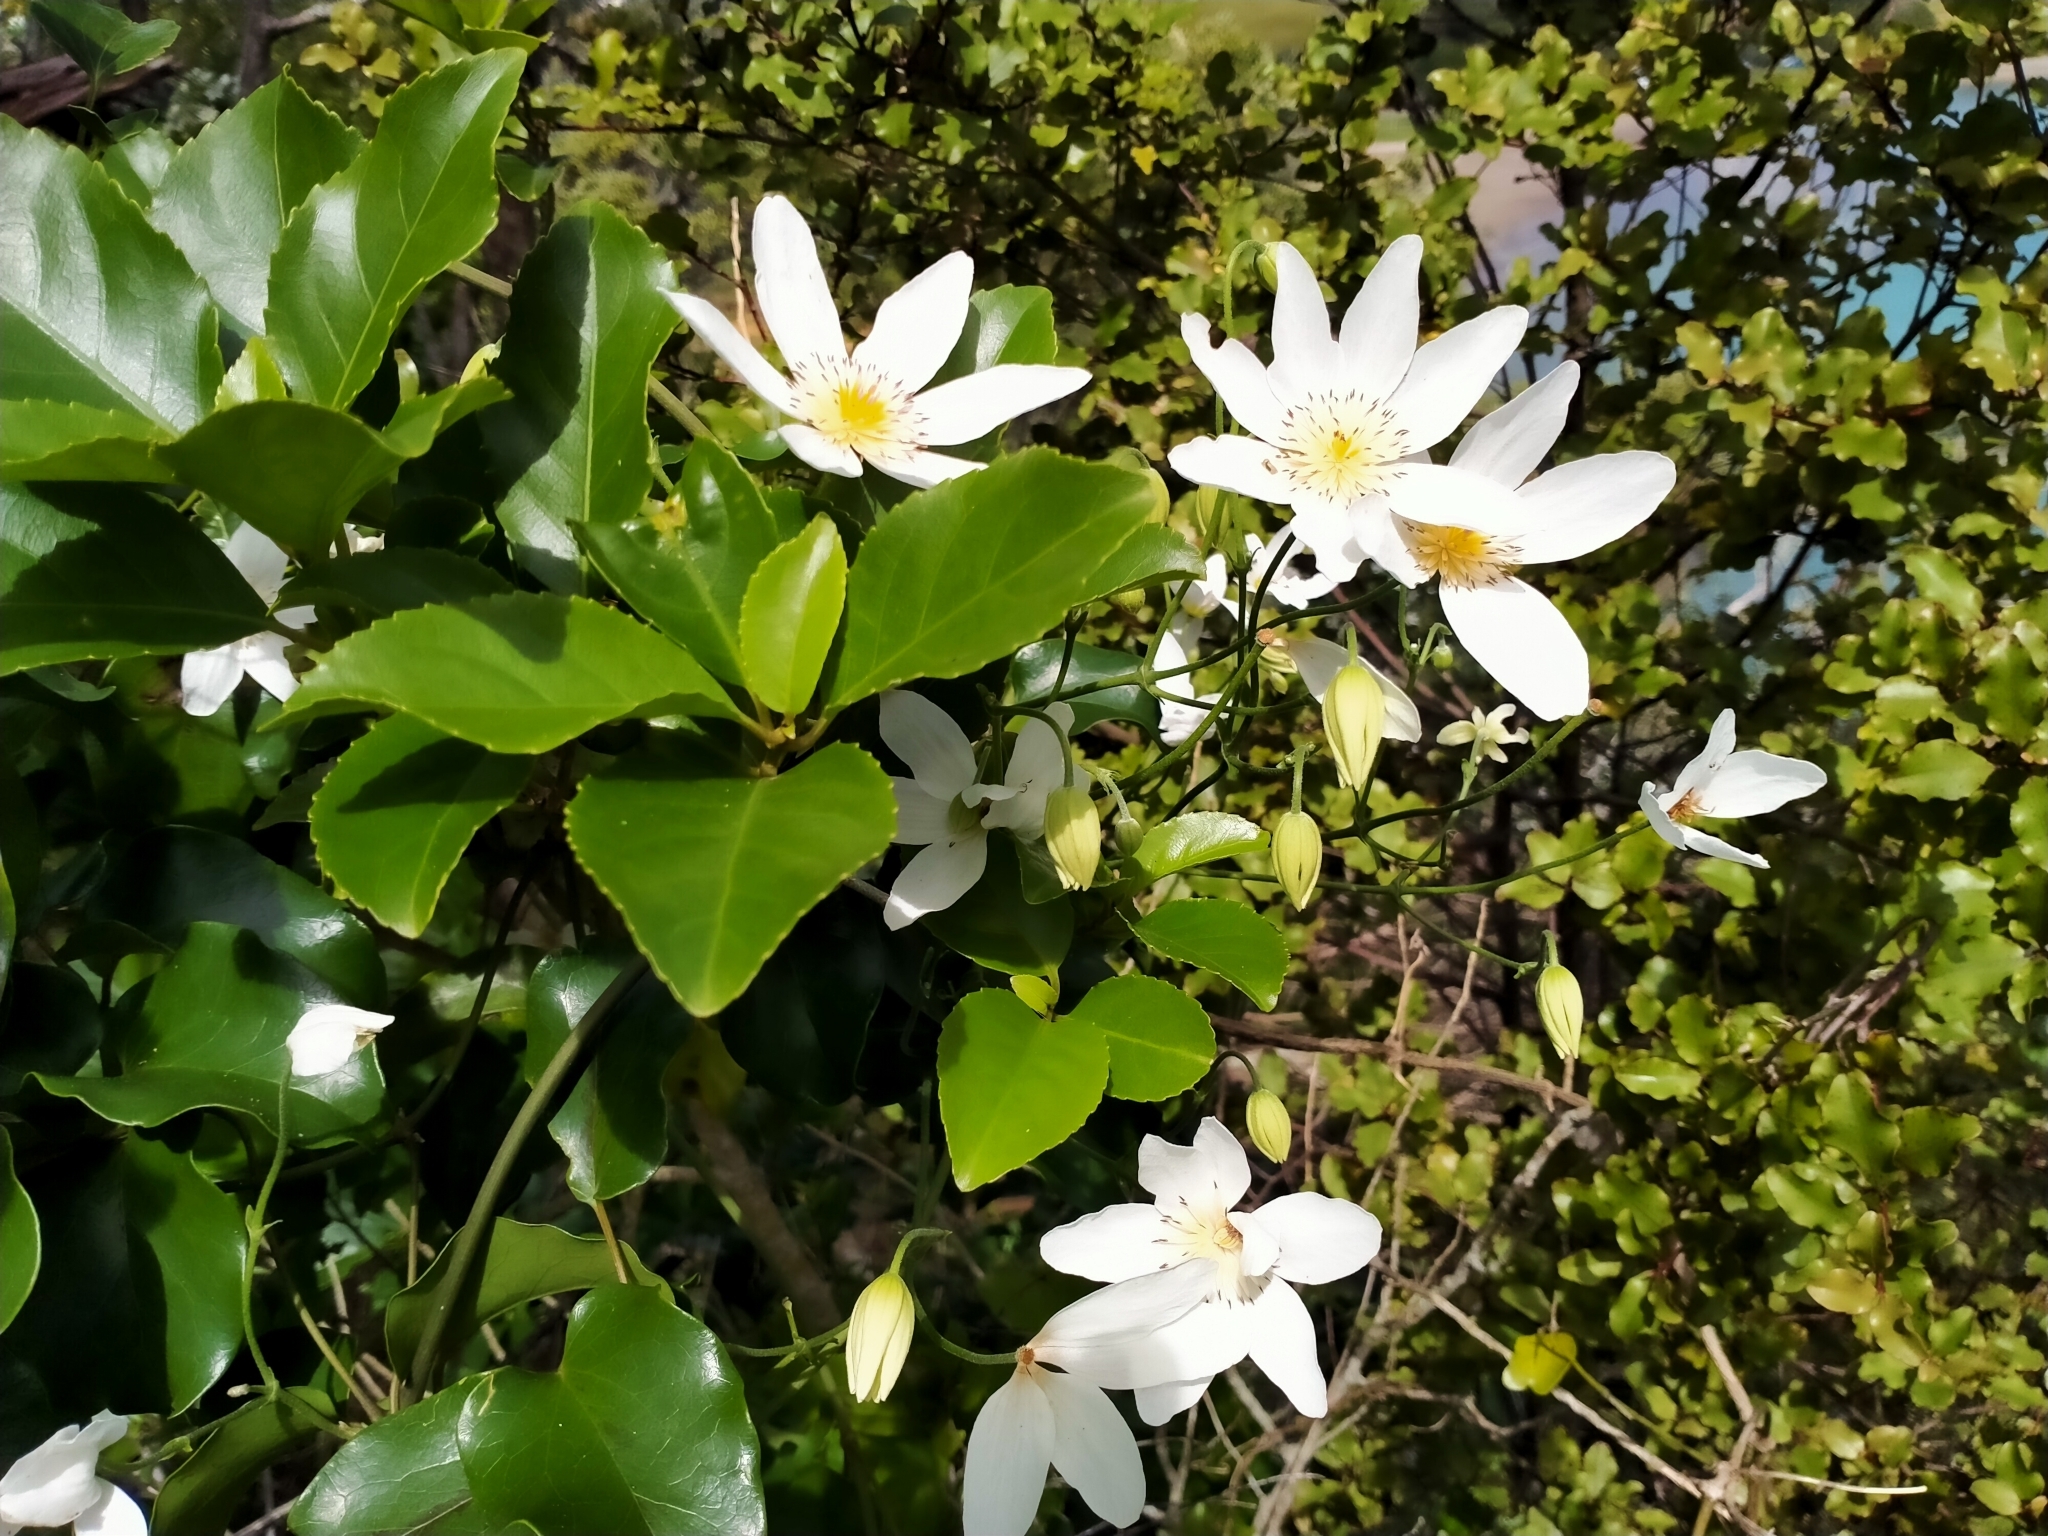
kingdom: Plantae
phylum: Tracheophyta
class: Magnoliopsida
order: Ranunculales
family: Ranunculaceae
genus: Clematis
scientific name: Clematis paniculata
